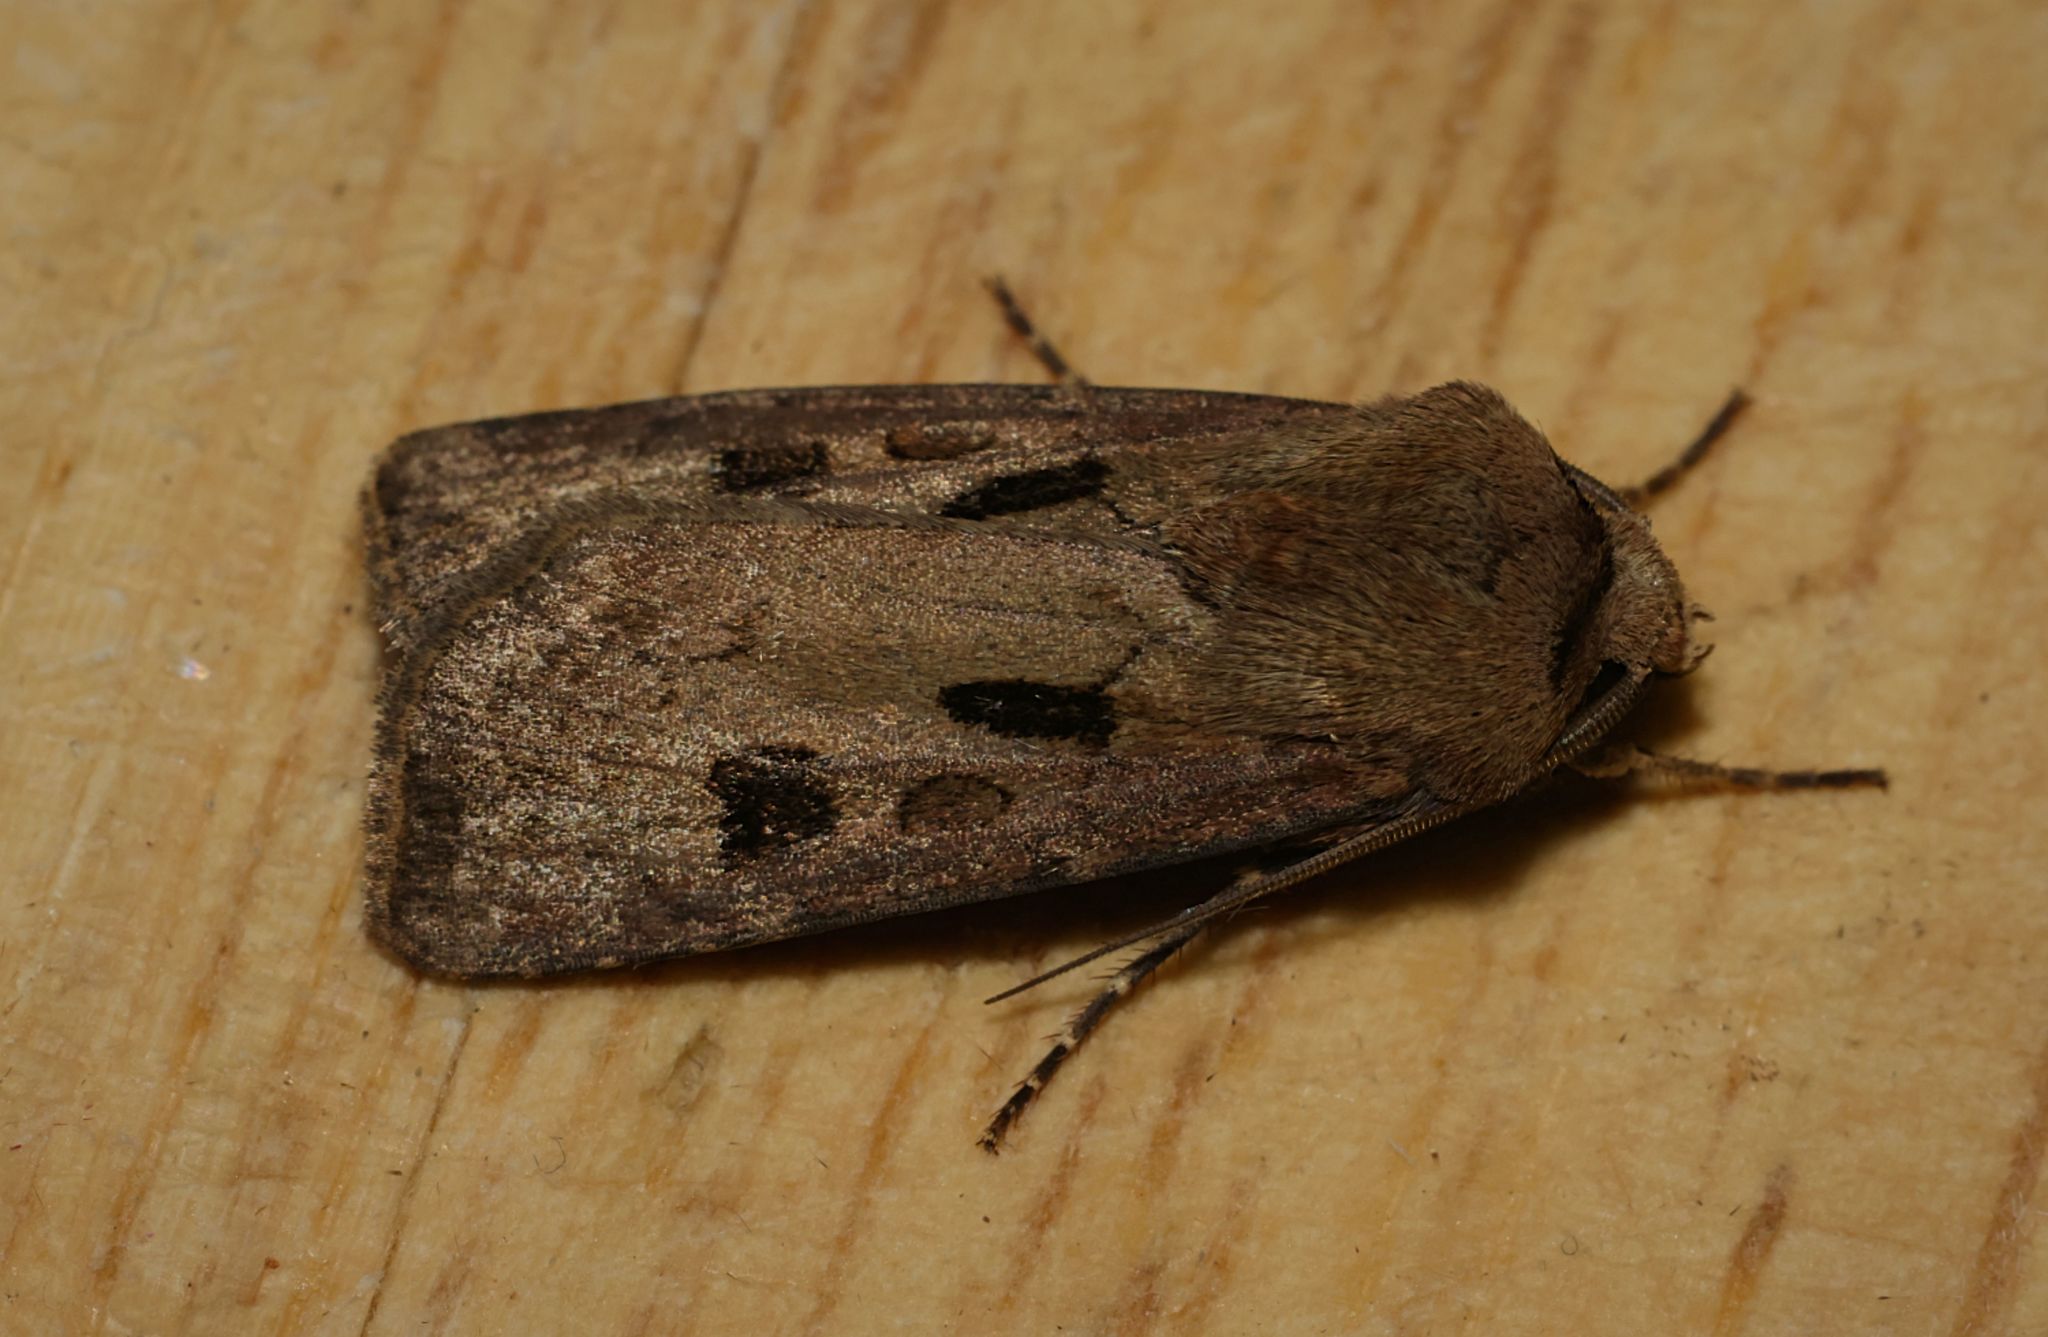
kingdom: Animalia
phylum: Arthropoda
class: Insecta
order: Lepidoptera
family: Noctuidae
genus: Agrotis
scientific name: Agrotis exclamationis
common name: Heart and dart
